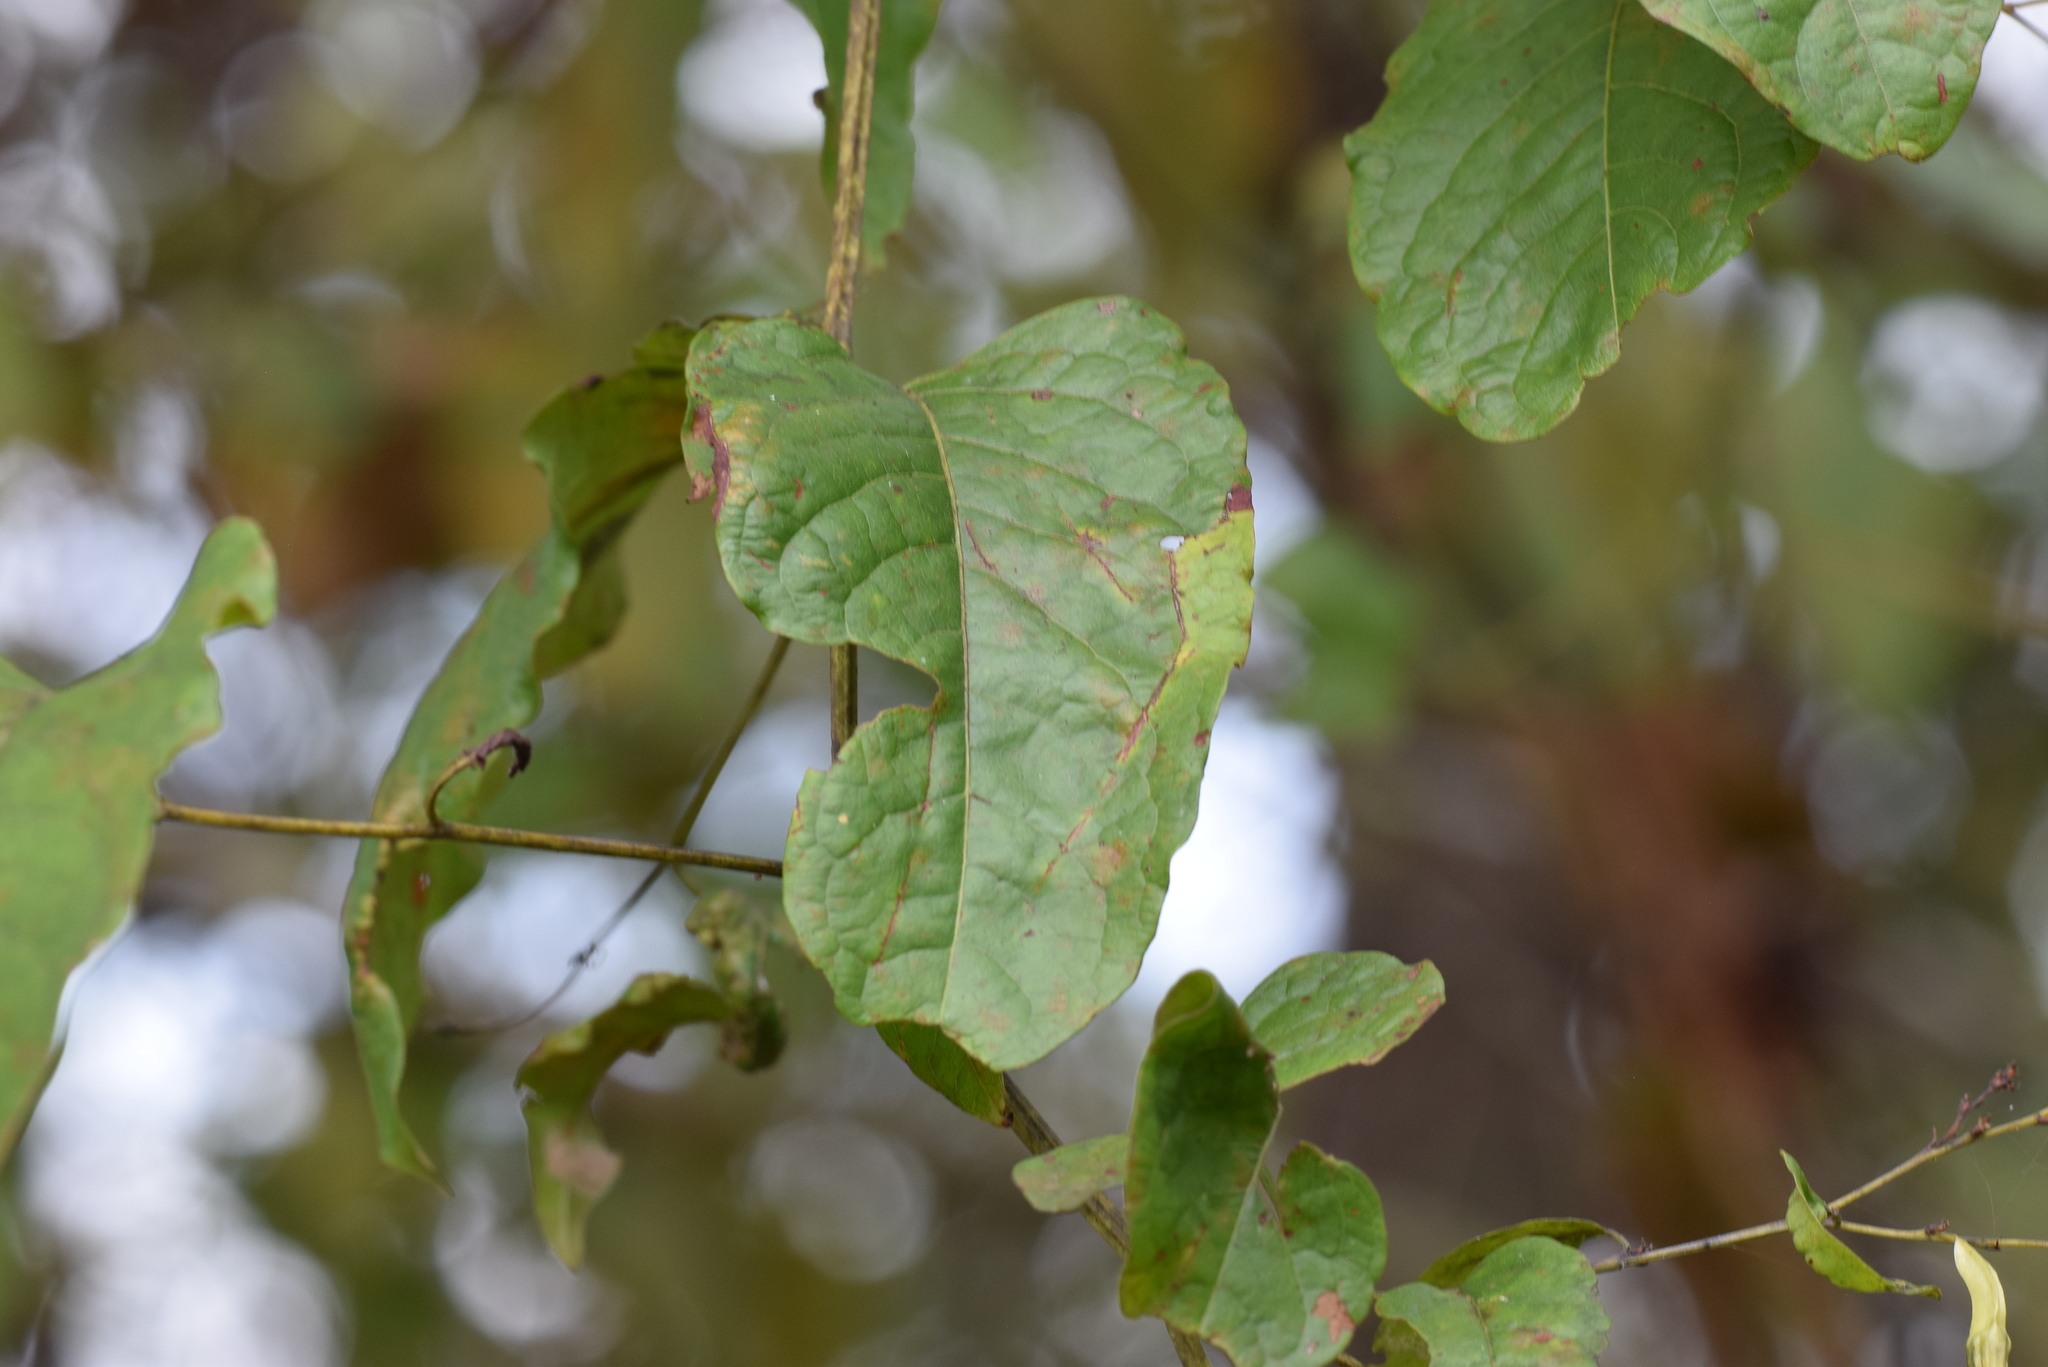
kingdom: Plantae
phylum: Tracheophyta
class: Magnoliopsida
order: Caryophyllales
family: Polygonaceae
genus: Brunnichia
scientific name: Brunnichia ovata
